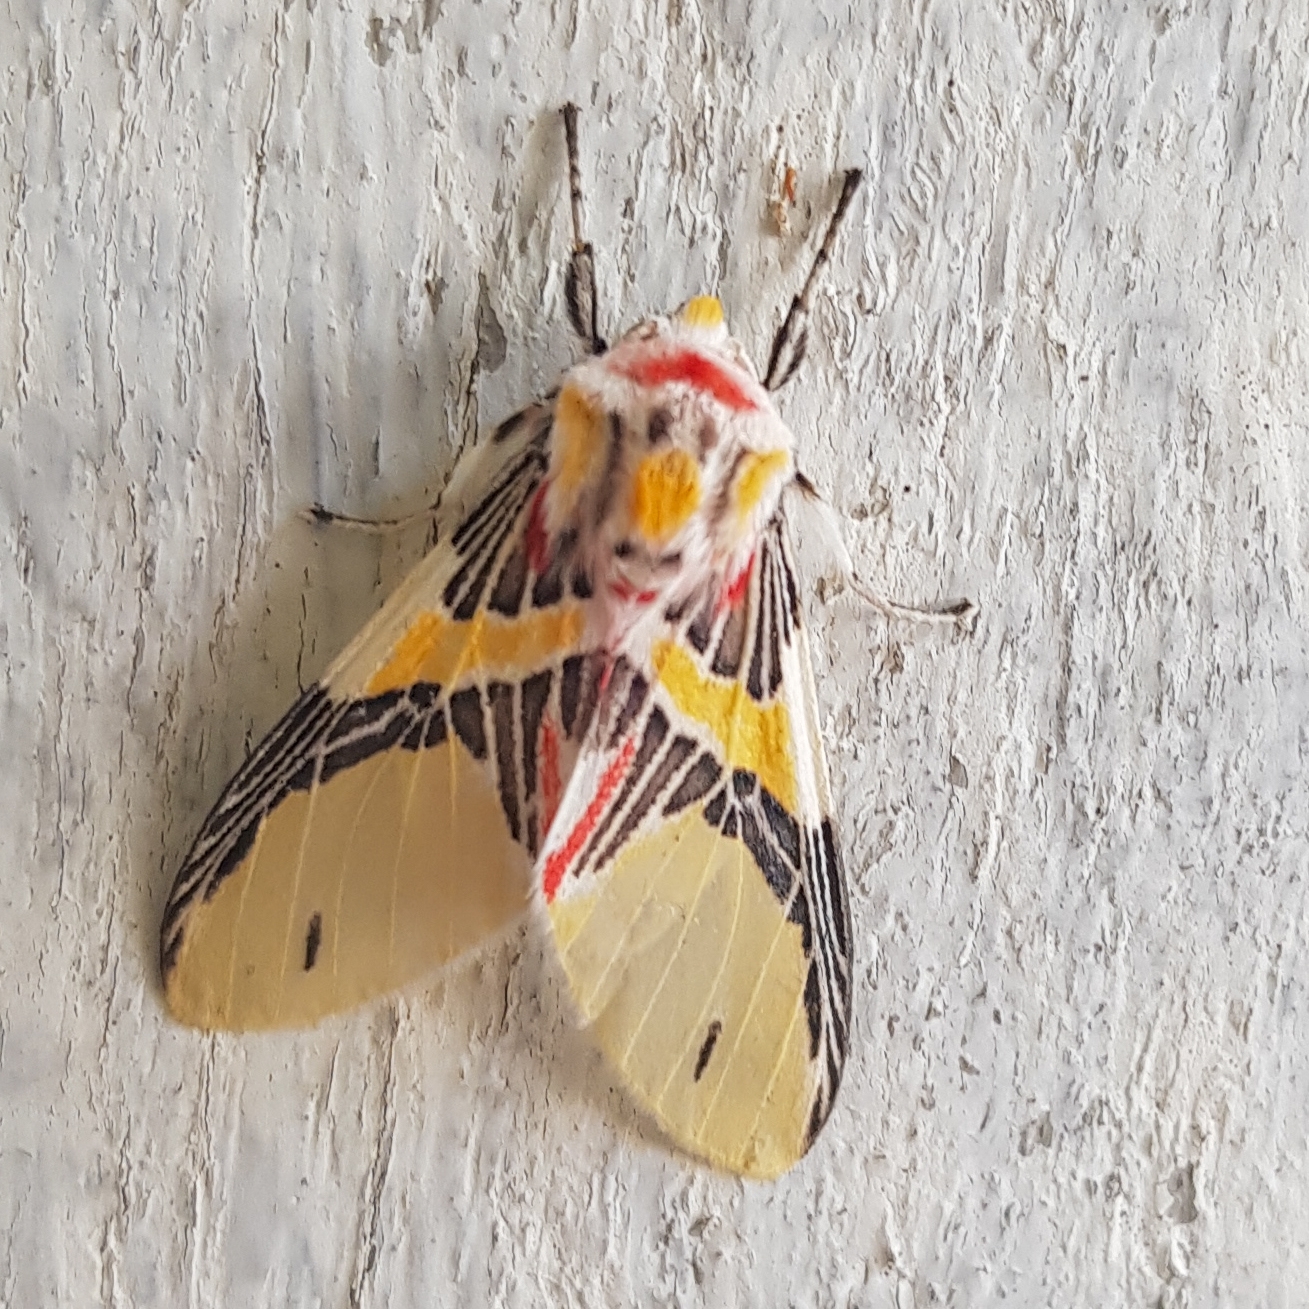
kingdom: Animalia
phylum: Arthropoda
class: Insecta
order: Lepidoptera
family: Erebidae
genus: Idalus
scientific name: Idalus agastus
